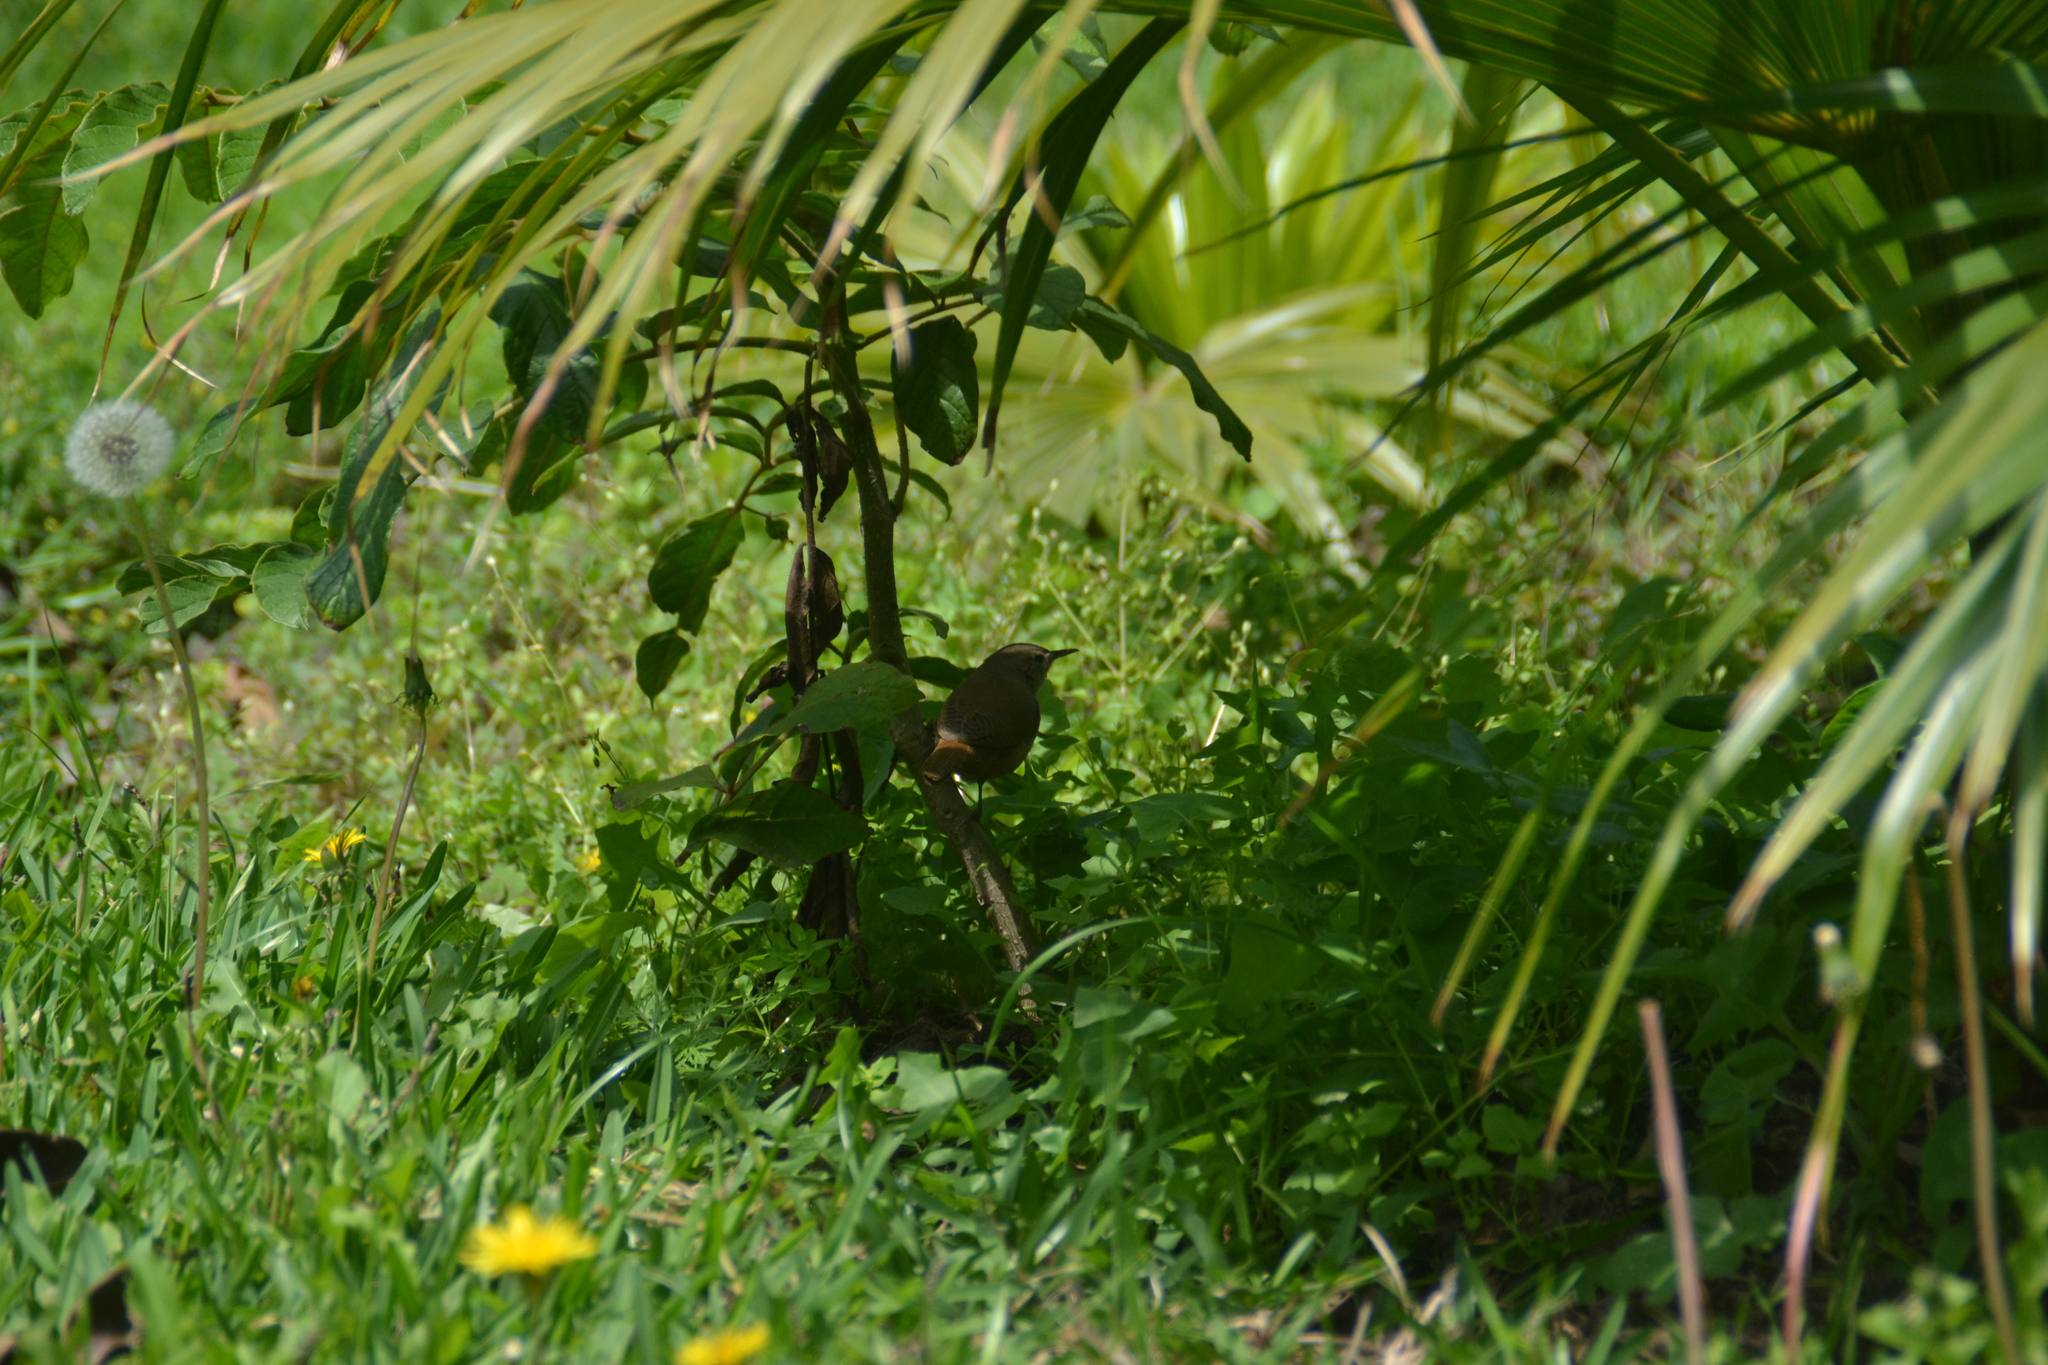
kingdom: Animalia
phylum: Chordata
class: Aves
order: Passeriformes
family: Troglodytidae
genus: Troglodytes
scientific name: Troglodytes aedon
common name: House wren
